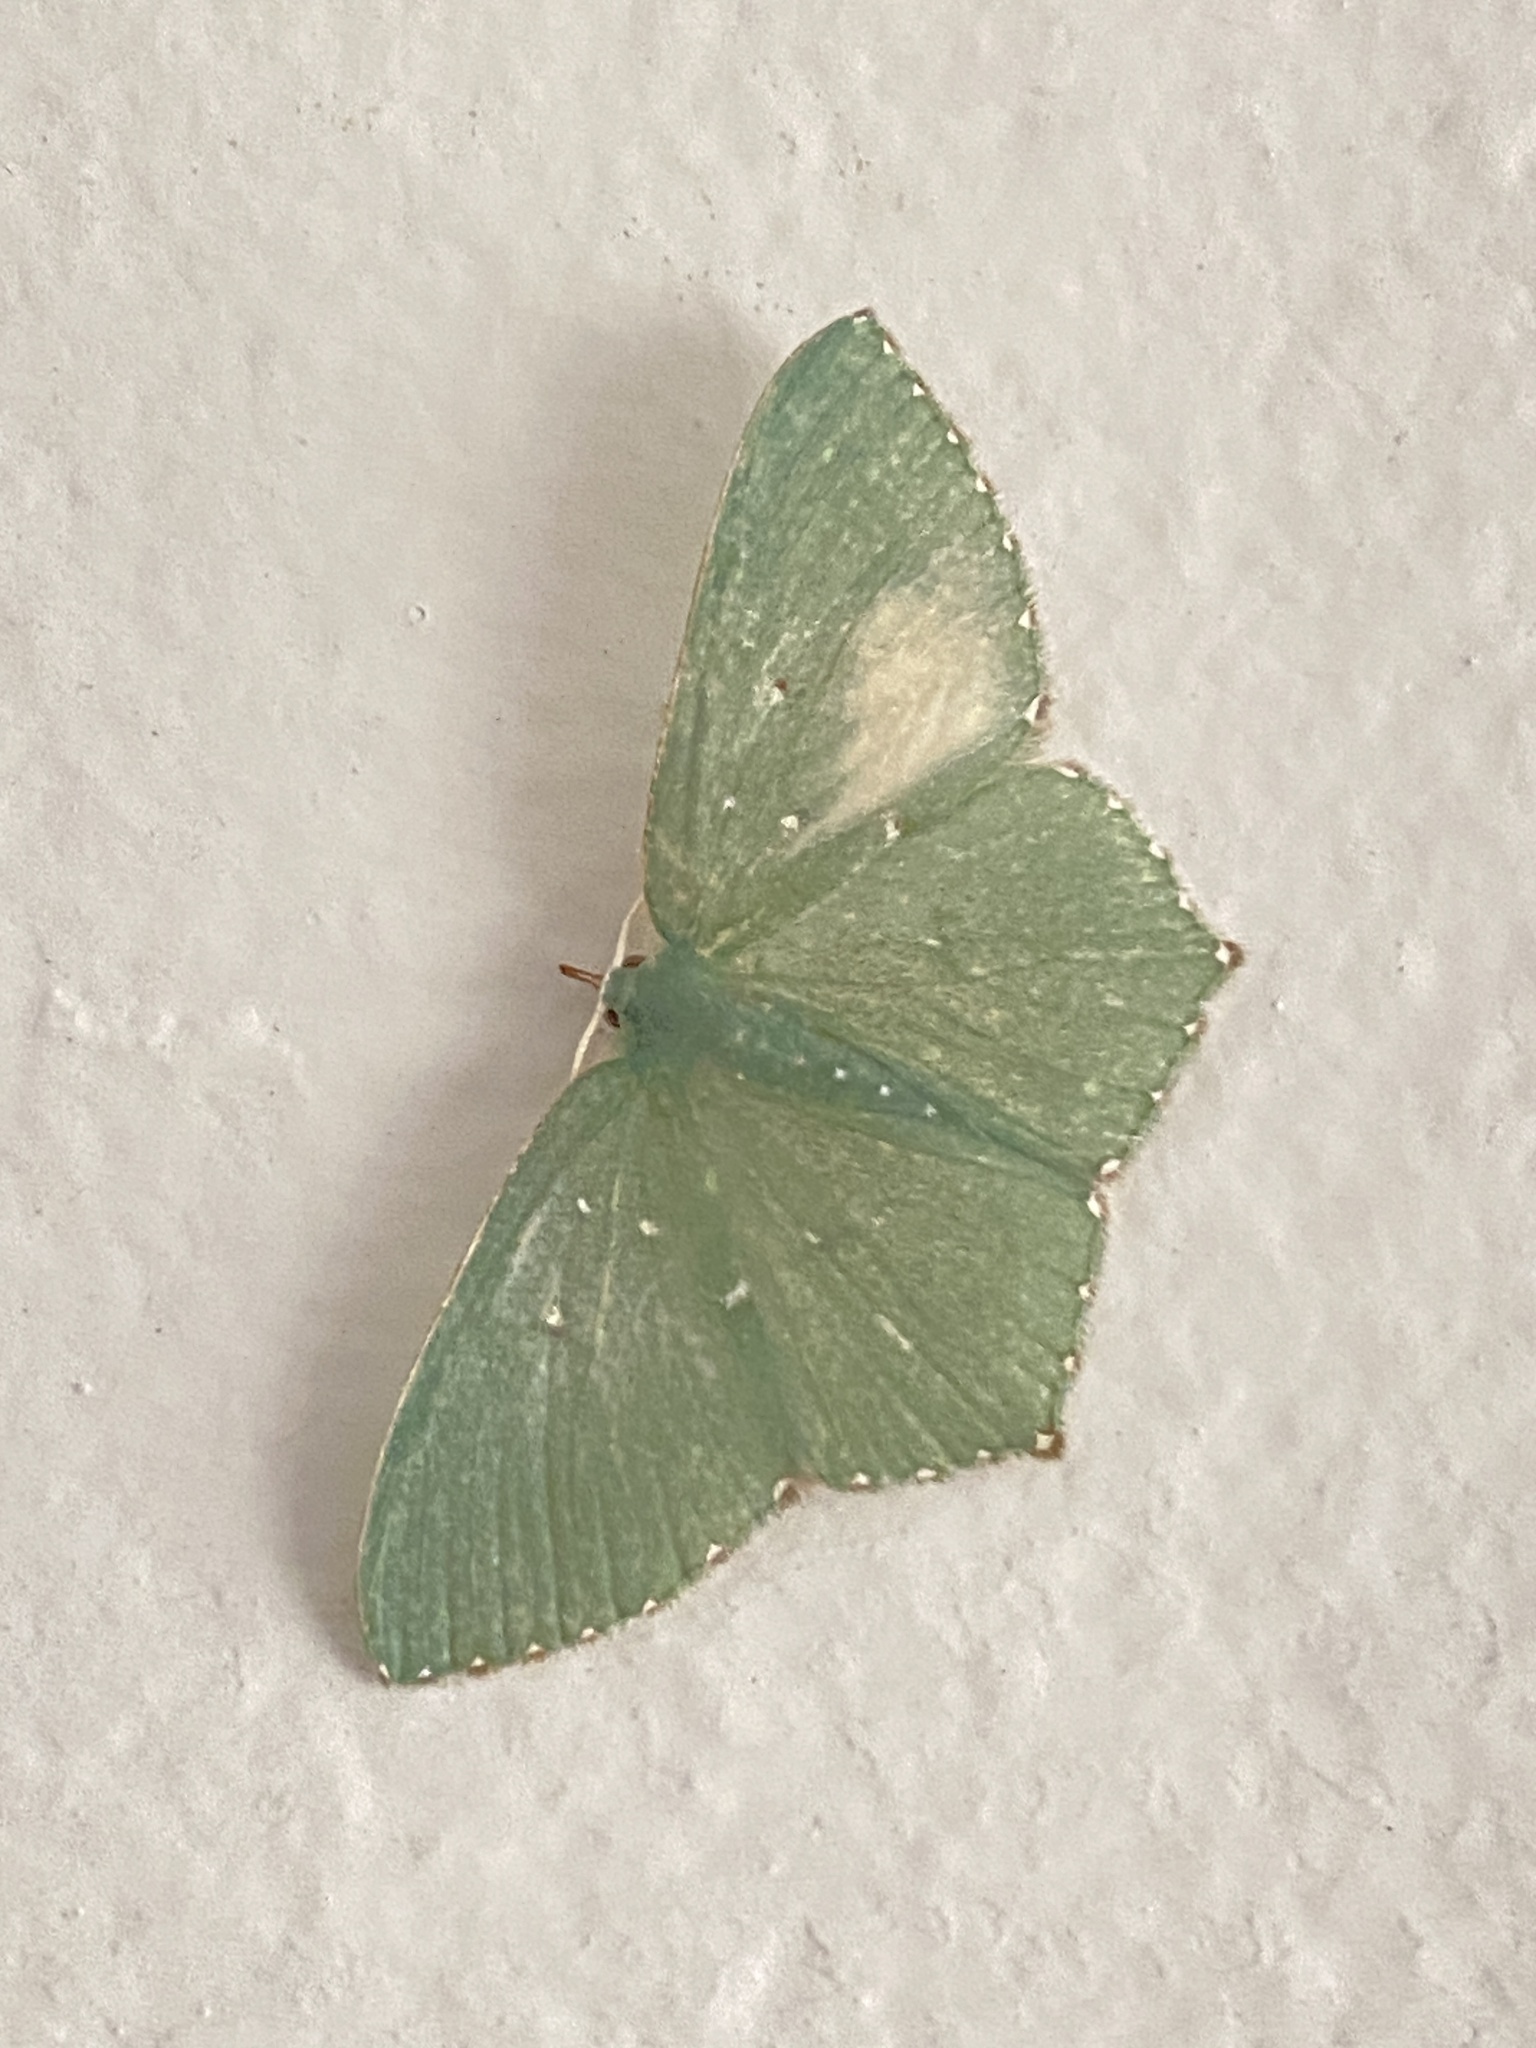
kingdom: Animalia
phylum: Arthropoda
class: Insecta
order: Lepidoptera
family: Geometridae
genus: Prasinocyma
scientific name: Prasinocyma hadrata
